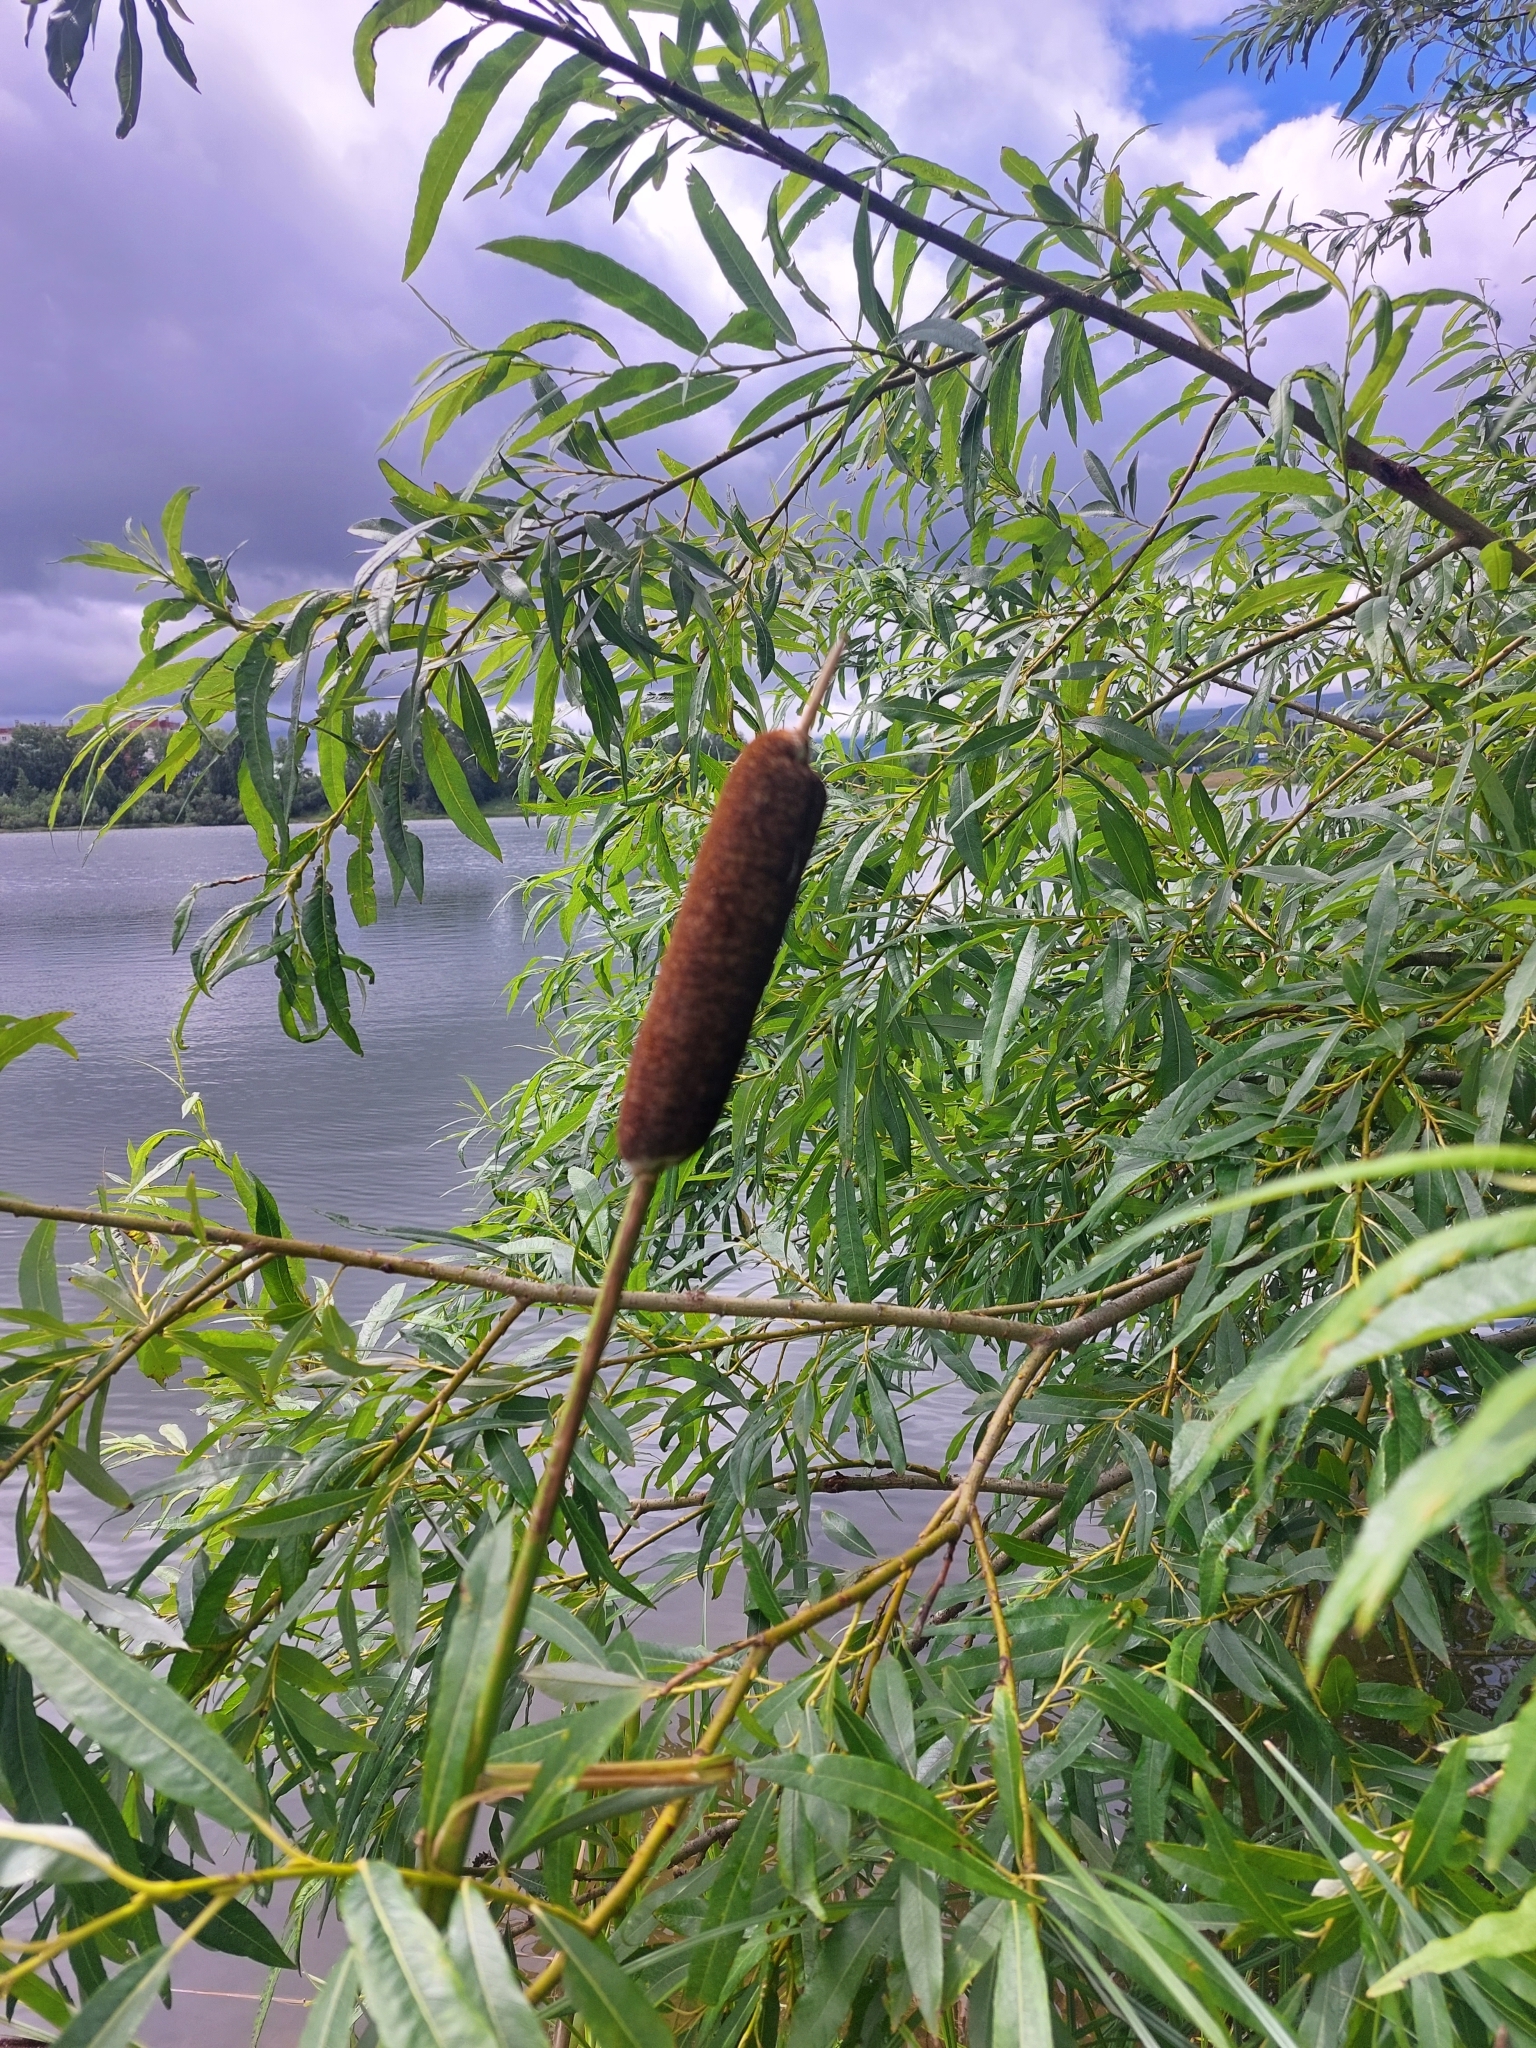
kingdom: Plantae
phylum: Tracheophyta
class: Liliopsida
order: Poales
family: Typhaceae
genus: Typha
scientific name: Typha latifolia
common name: Broadleaf cattail
